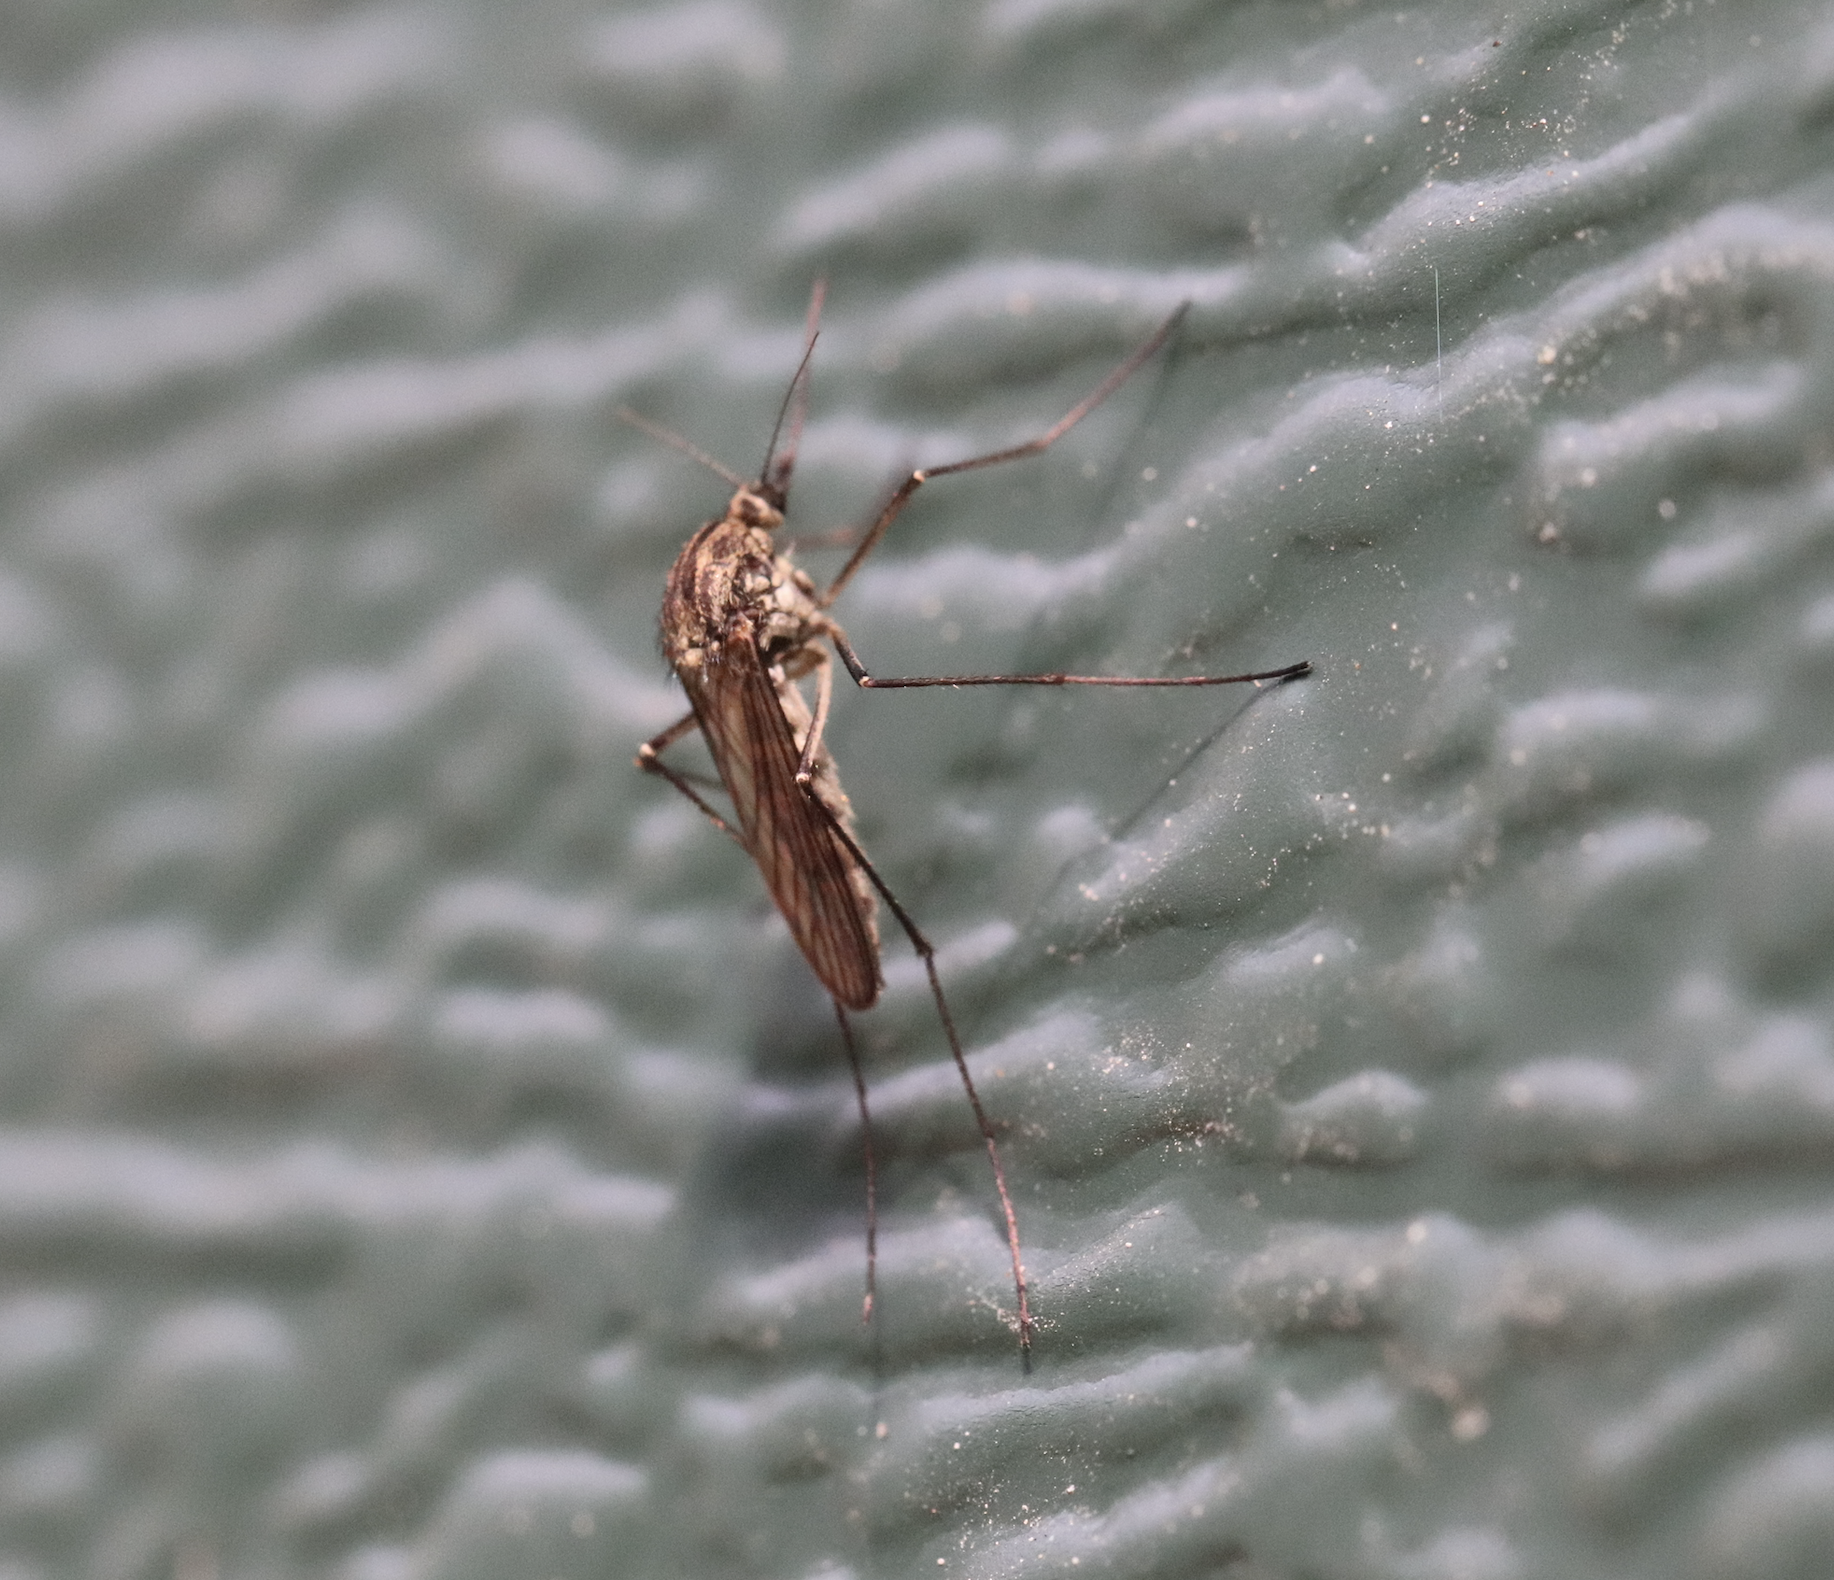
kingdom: Animalia
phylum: Arthropoda
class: Insecta
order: Diptera
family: Culicidae
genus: Aedes
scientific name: Aedes pionips
